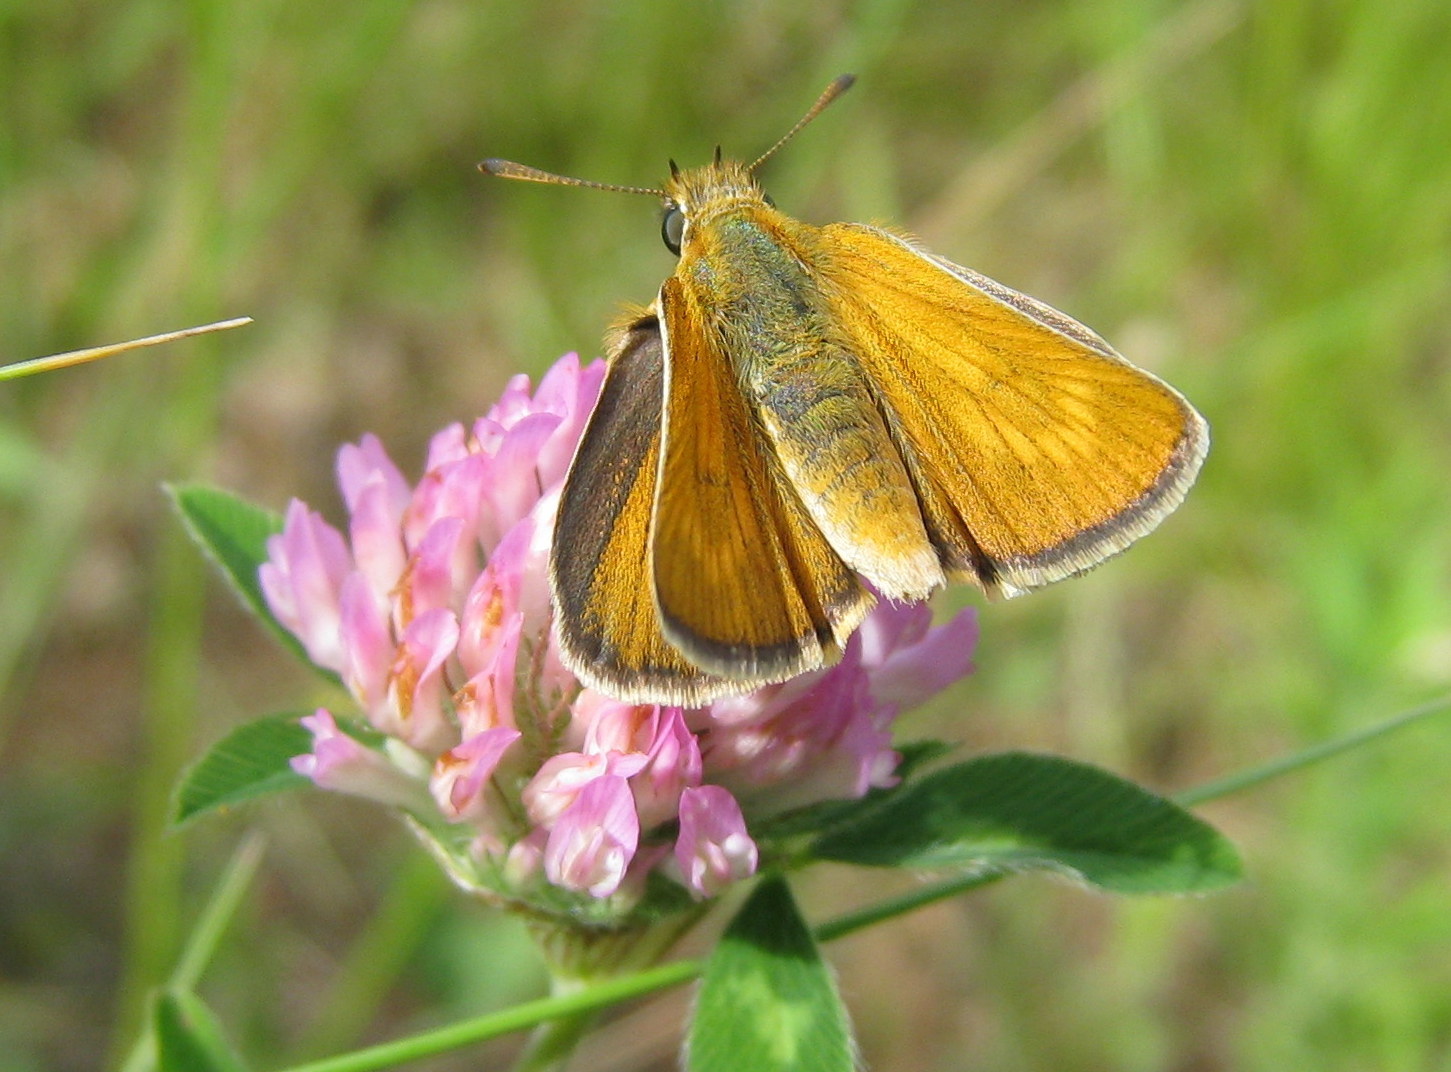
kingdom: Animalia
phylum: Arthropoda
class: Insecta
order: Lepidoptera
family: Hesperiidae
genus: Thymelicus
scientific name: Thymelicus acteon
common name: Lulworth skipper
